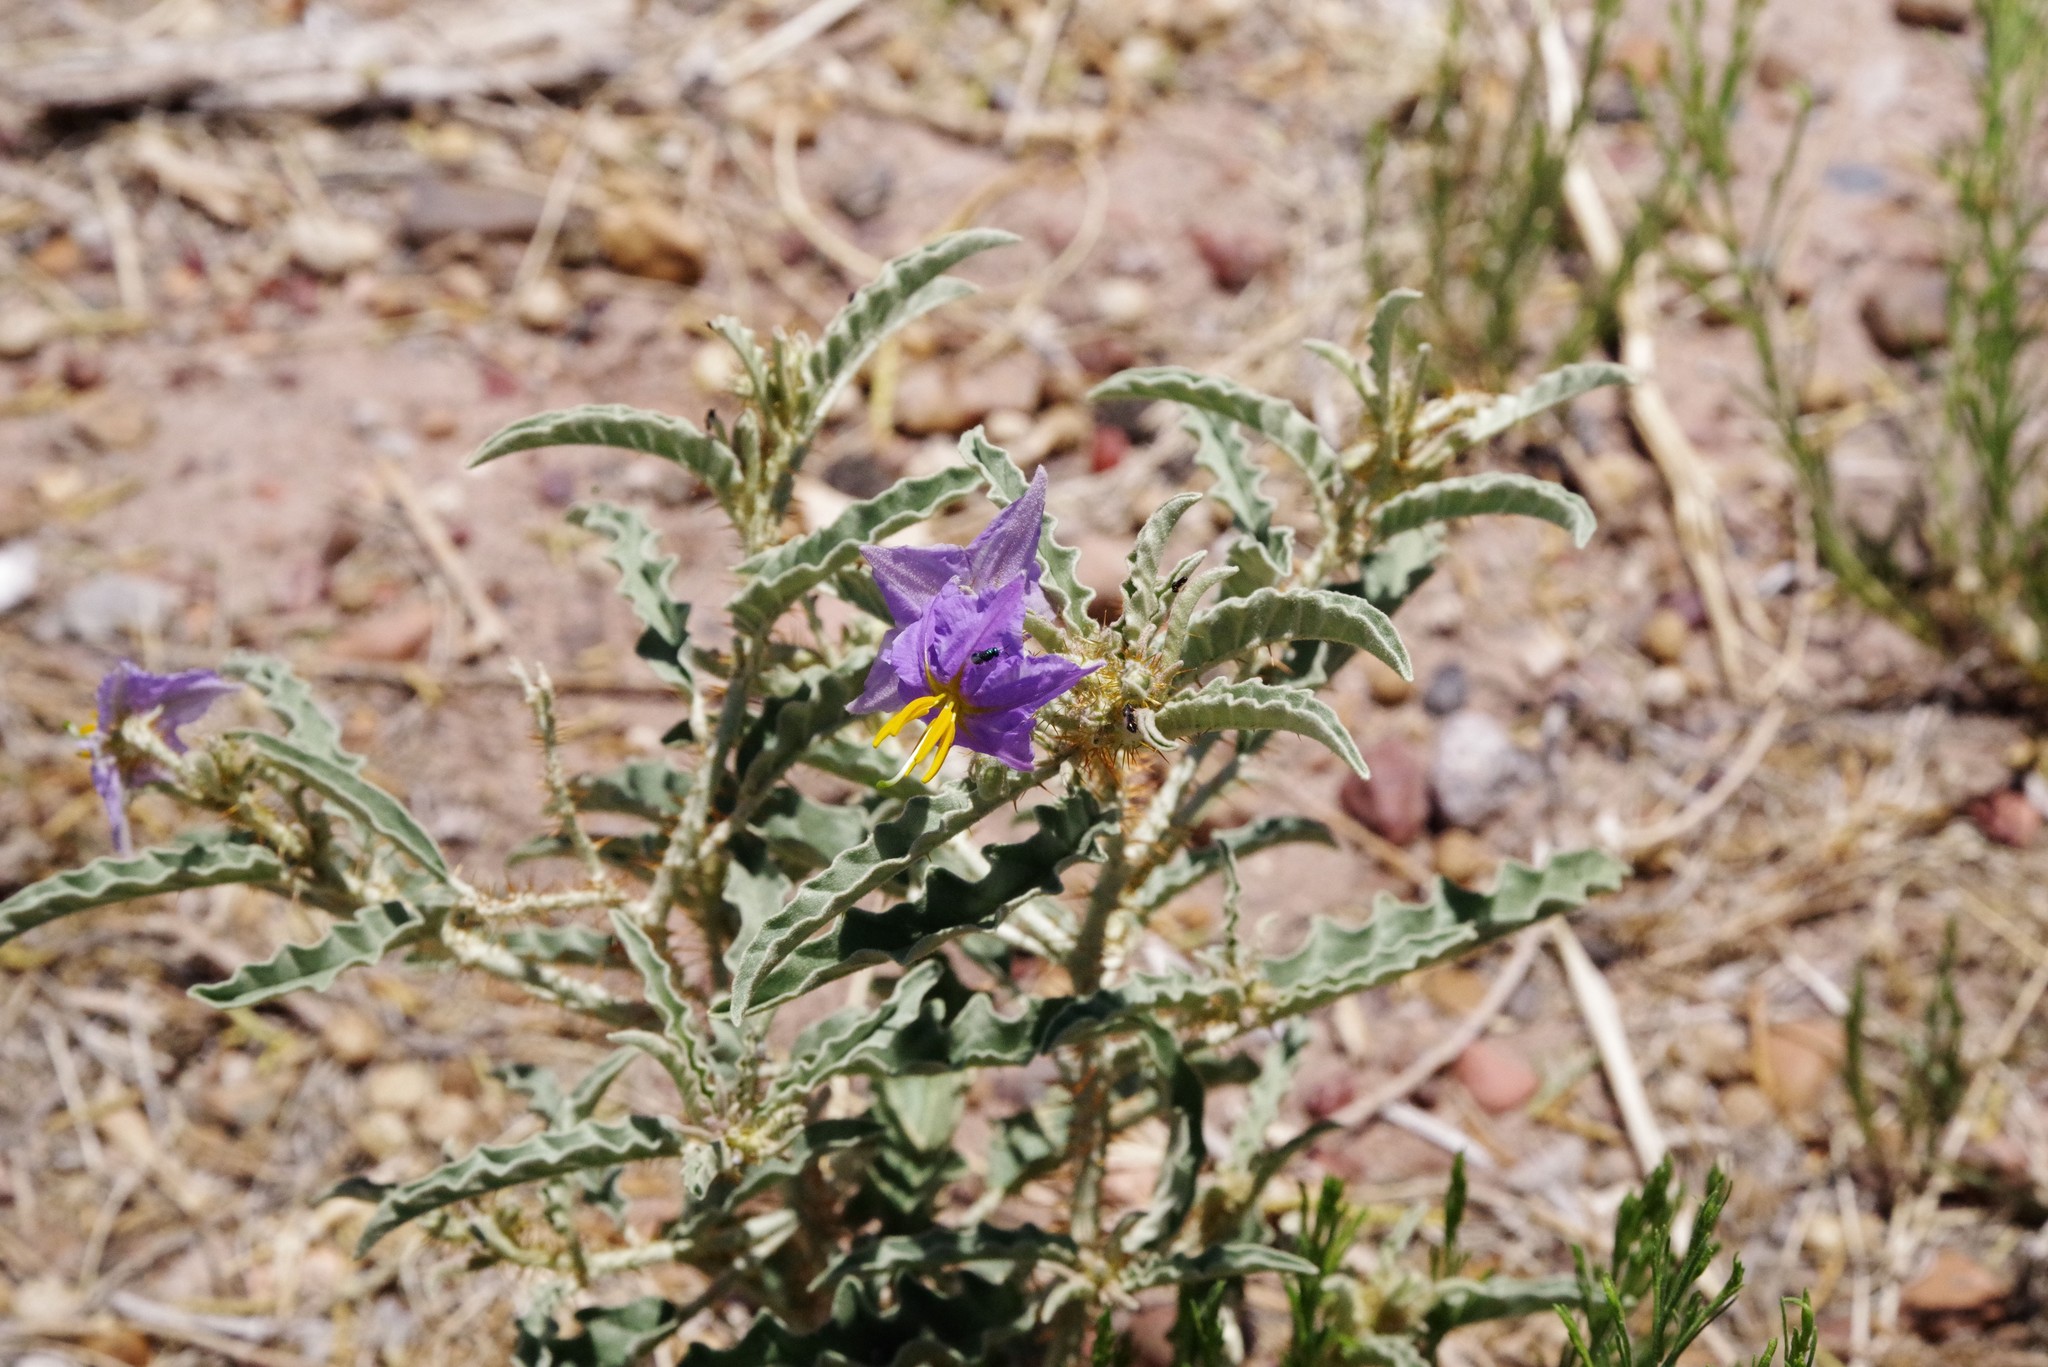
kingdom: Plantae
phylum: Tracheophyta
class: Magnoliopsida
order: Solanales
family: Solanaceae
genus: Solanum
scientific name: Solanum elaeagnifolium
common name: Silverleaf nightshade
